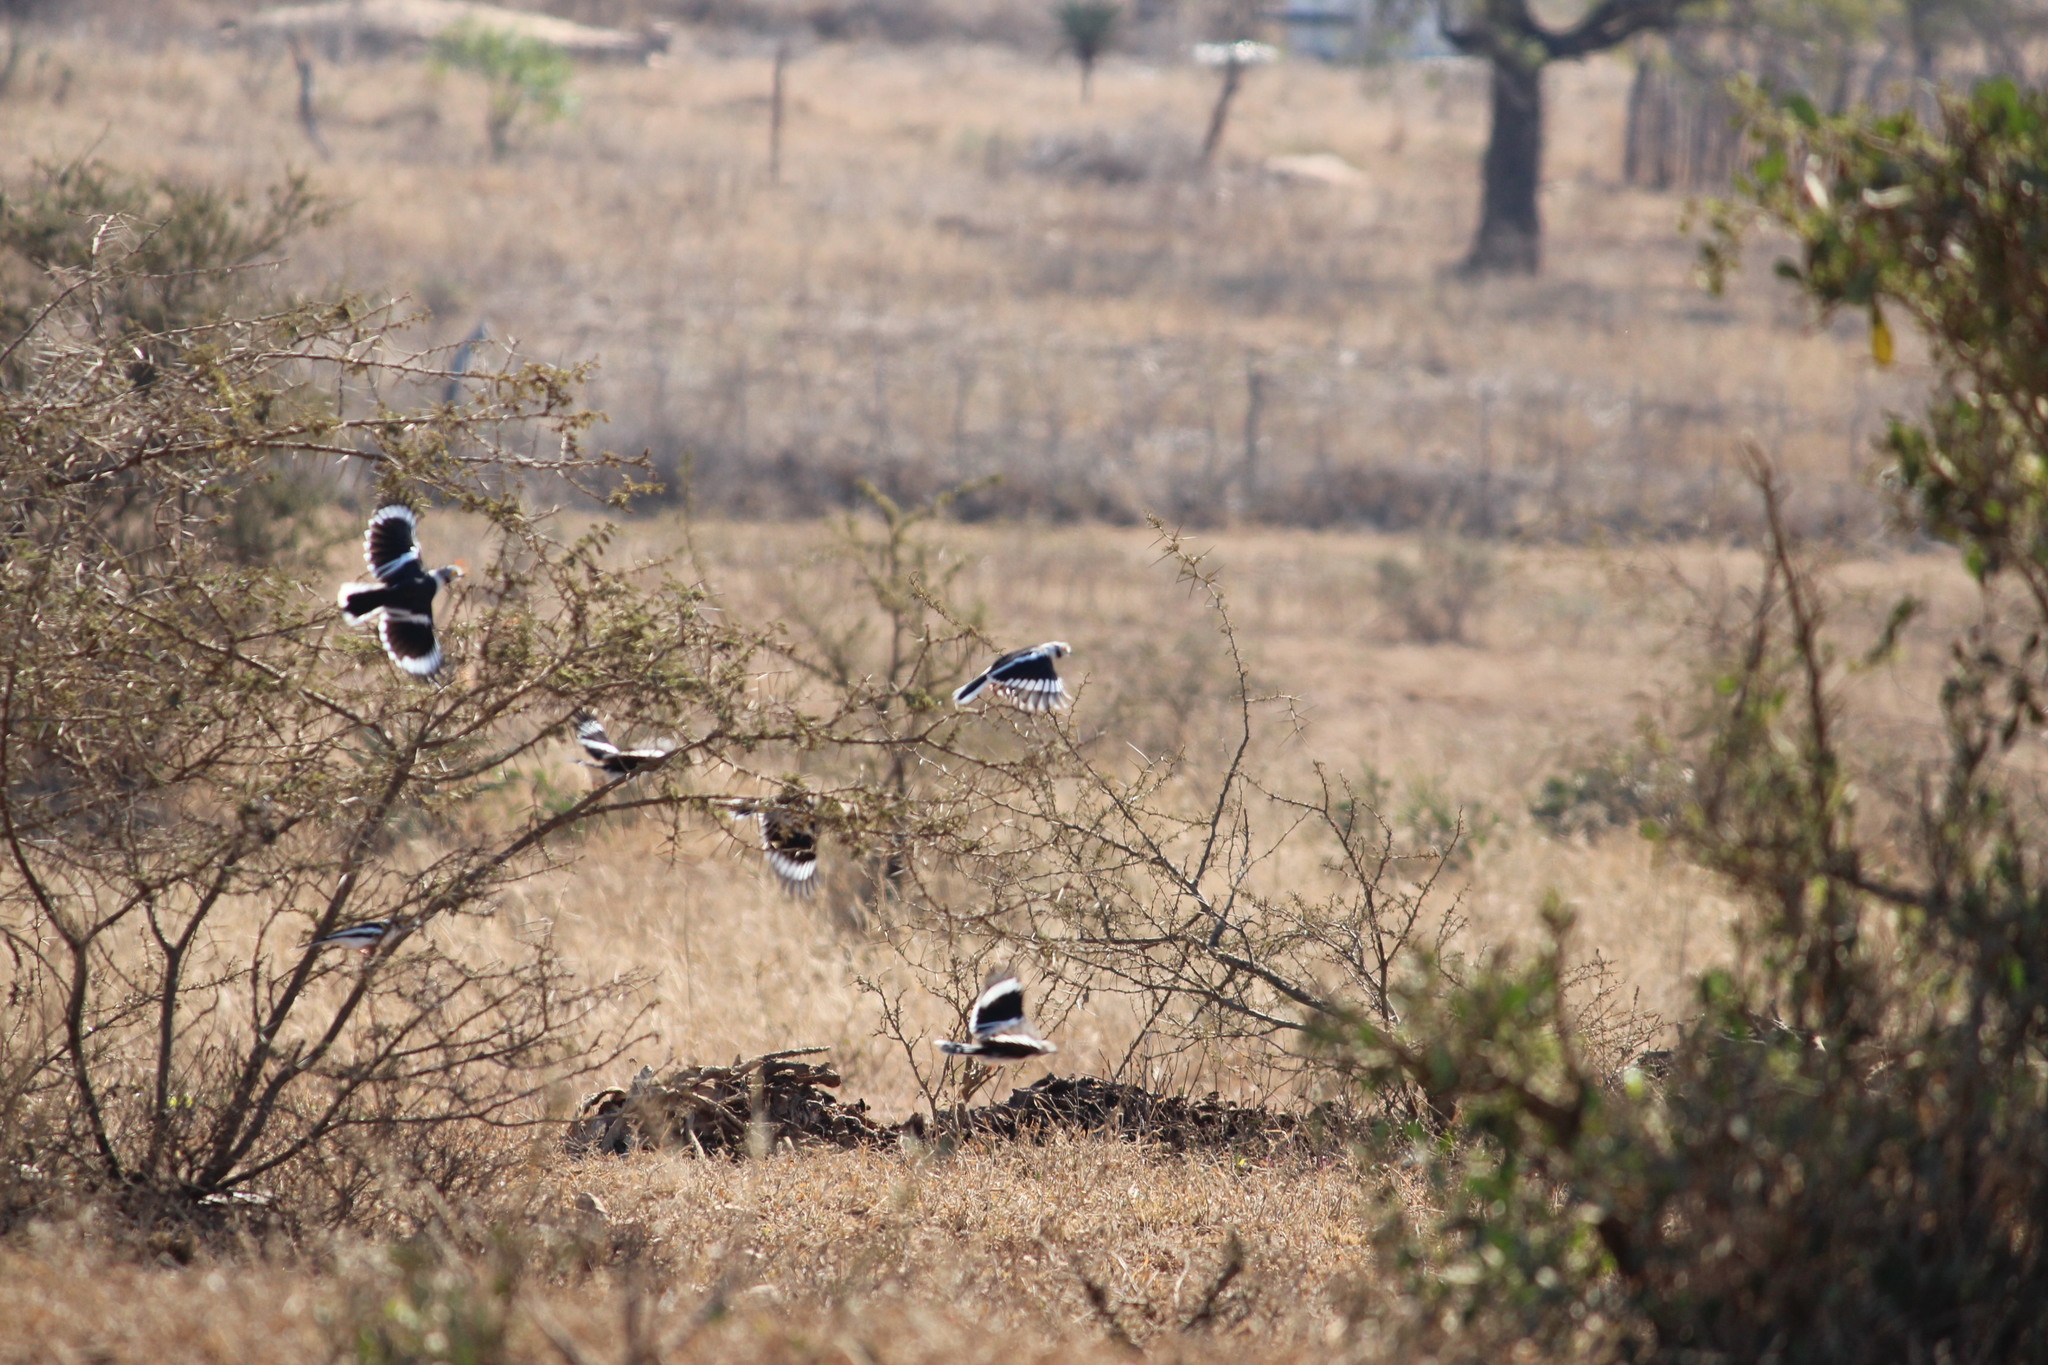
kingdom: Animalia
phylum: Chordata
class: Aves
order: Passeriformes
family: Prionopidae
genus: Prionops
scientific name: Prionops plumatus
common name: White-crested helmetshrike
